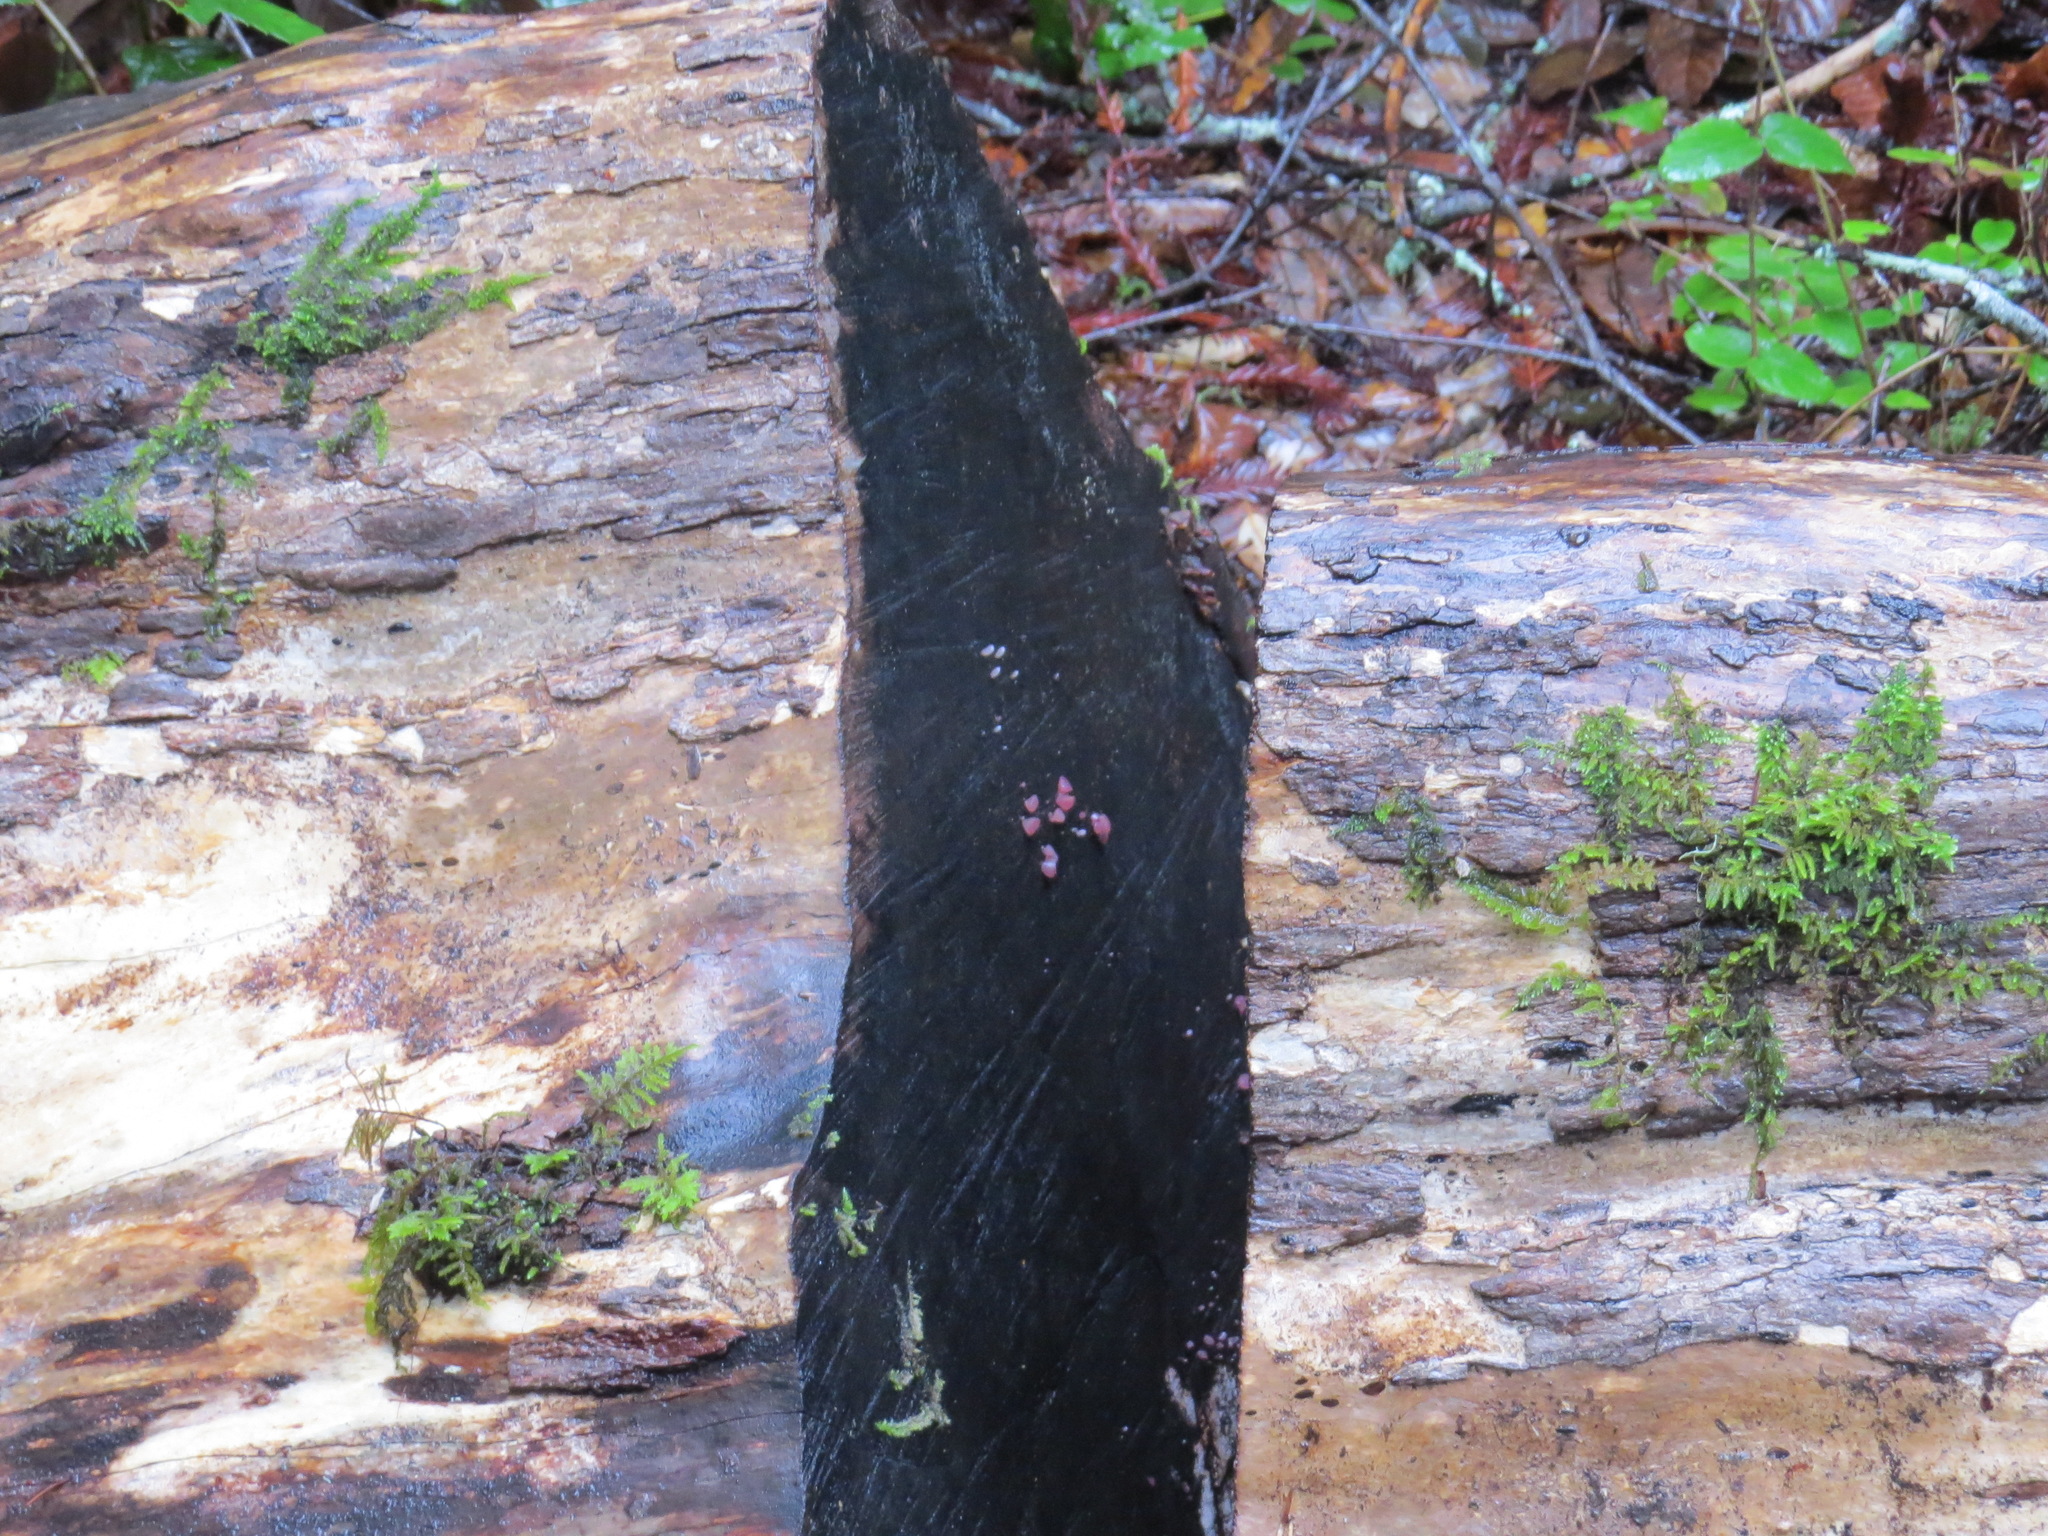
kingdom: Fungi
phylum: Ascomycota
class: Leotiomycetes
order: Helotiales
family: Gelatinodiscaceae
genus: Ascocoryne
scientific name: Ascocoryne sarcoides
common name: Purple jellydisc
